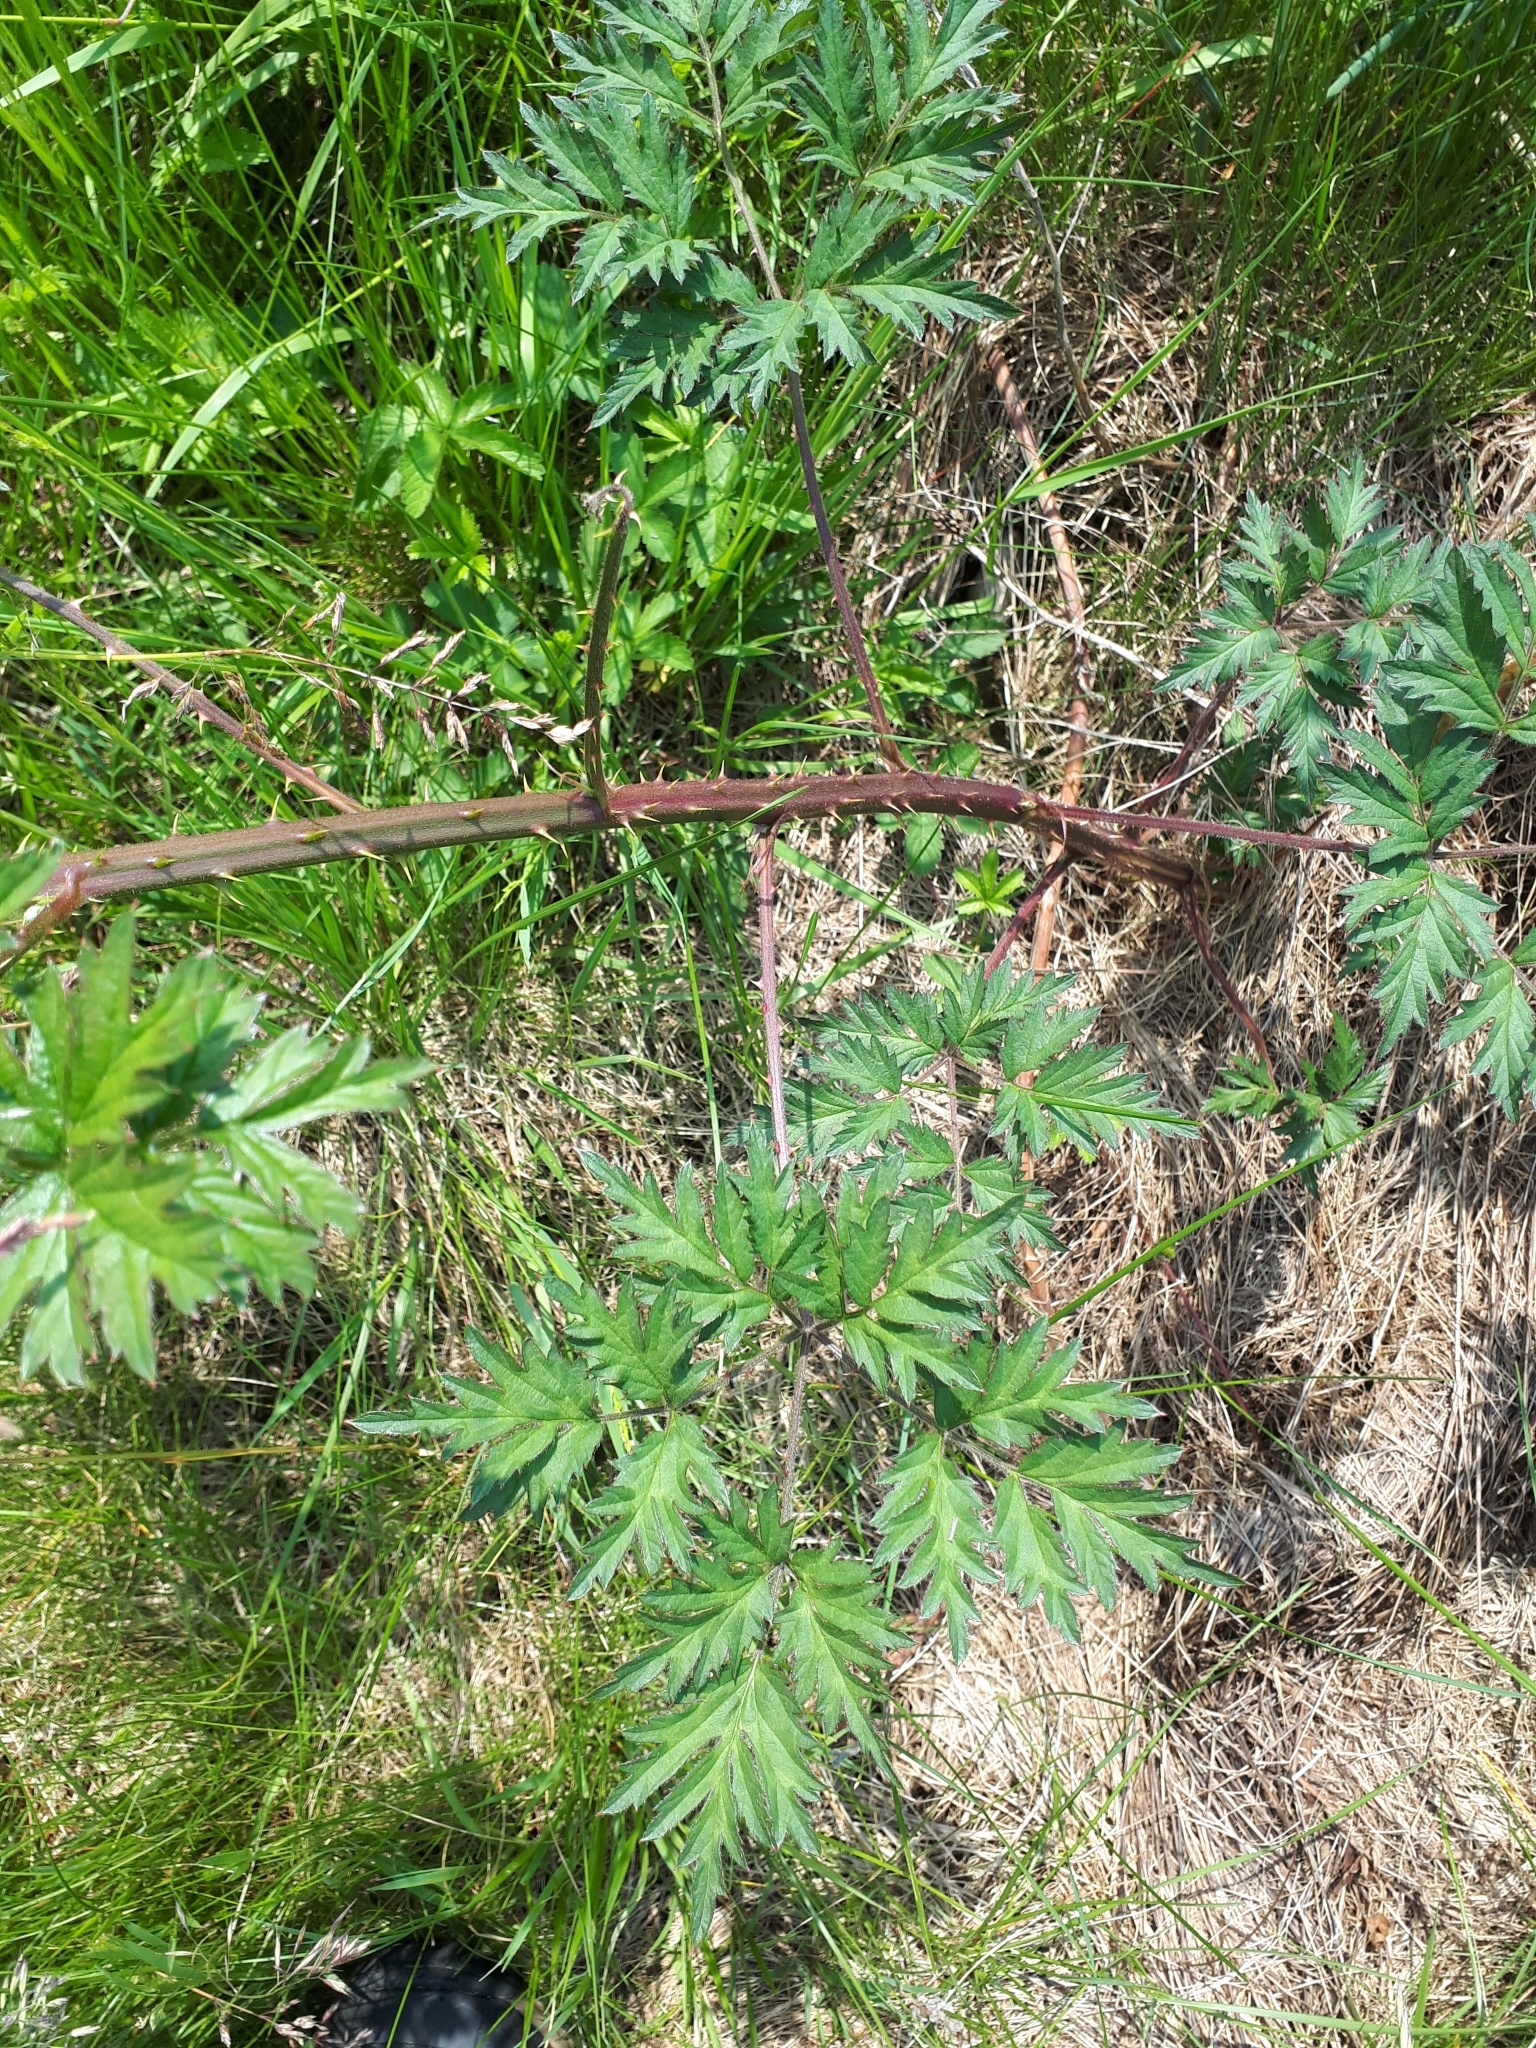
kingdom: Plantae
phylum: Tracheophyta
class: Magnoliopsida
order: Rosales
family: Rosaceae
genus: Rubus
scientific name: Rubus laciniatus
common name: Evergreen blackberry
